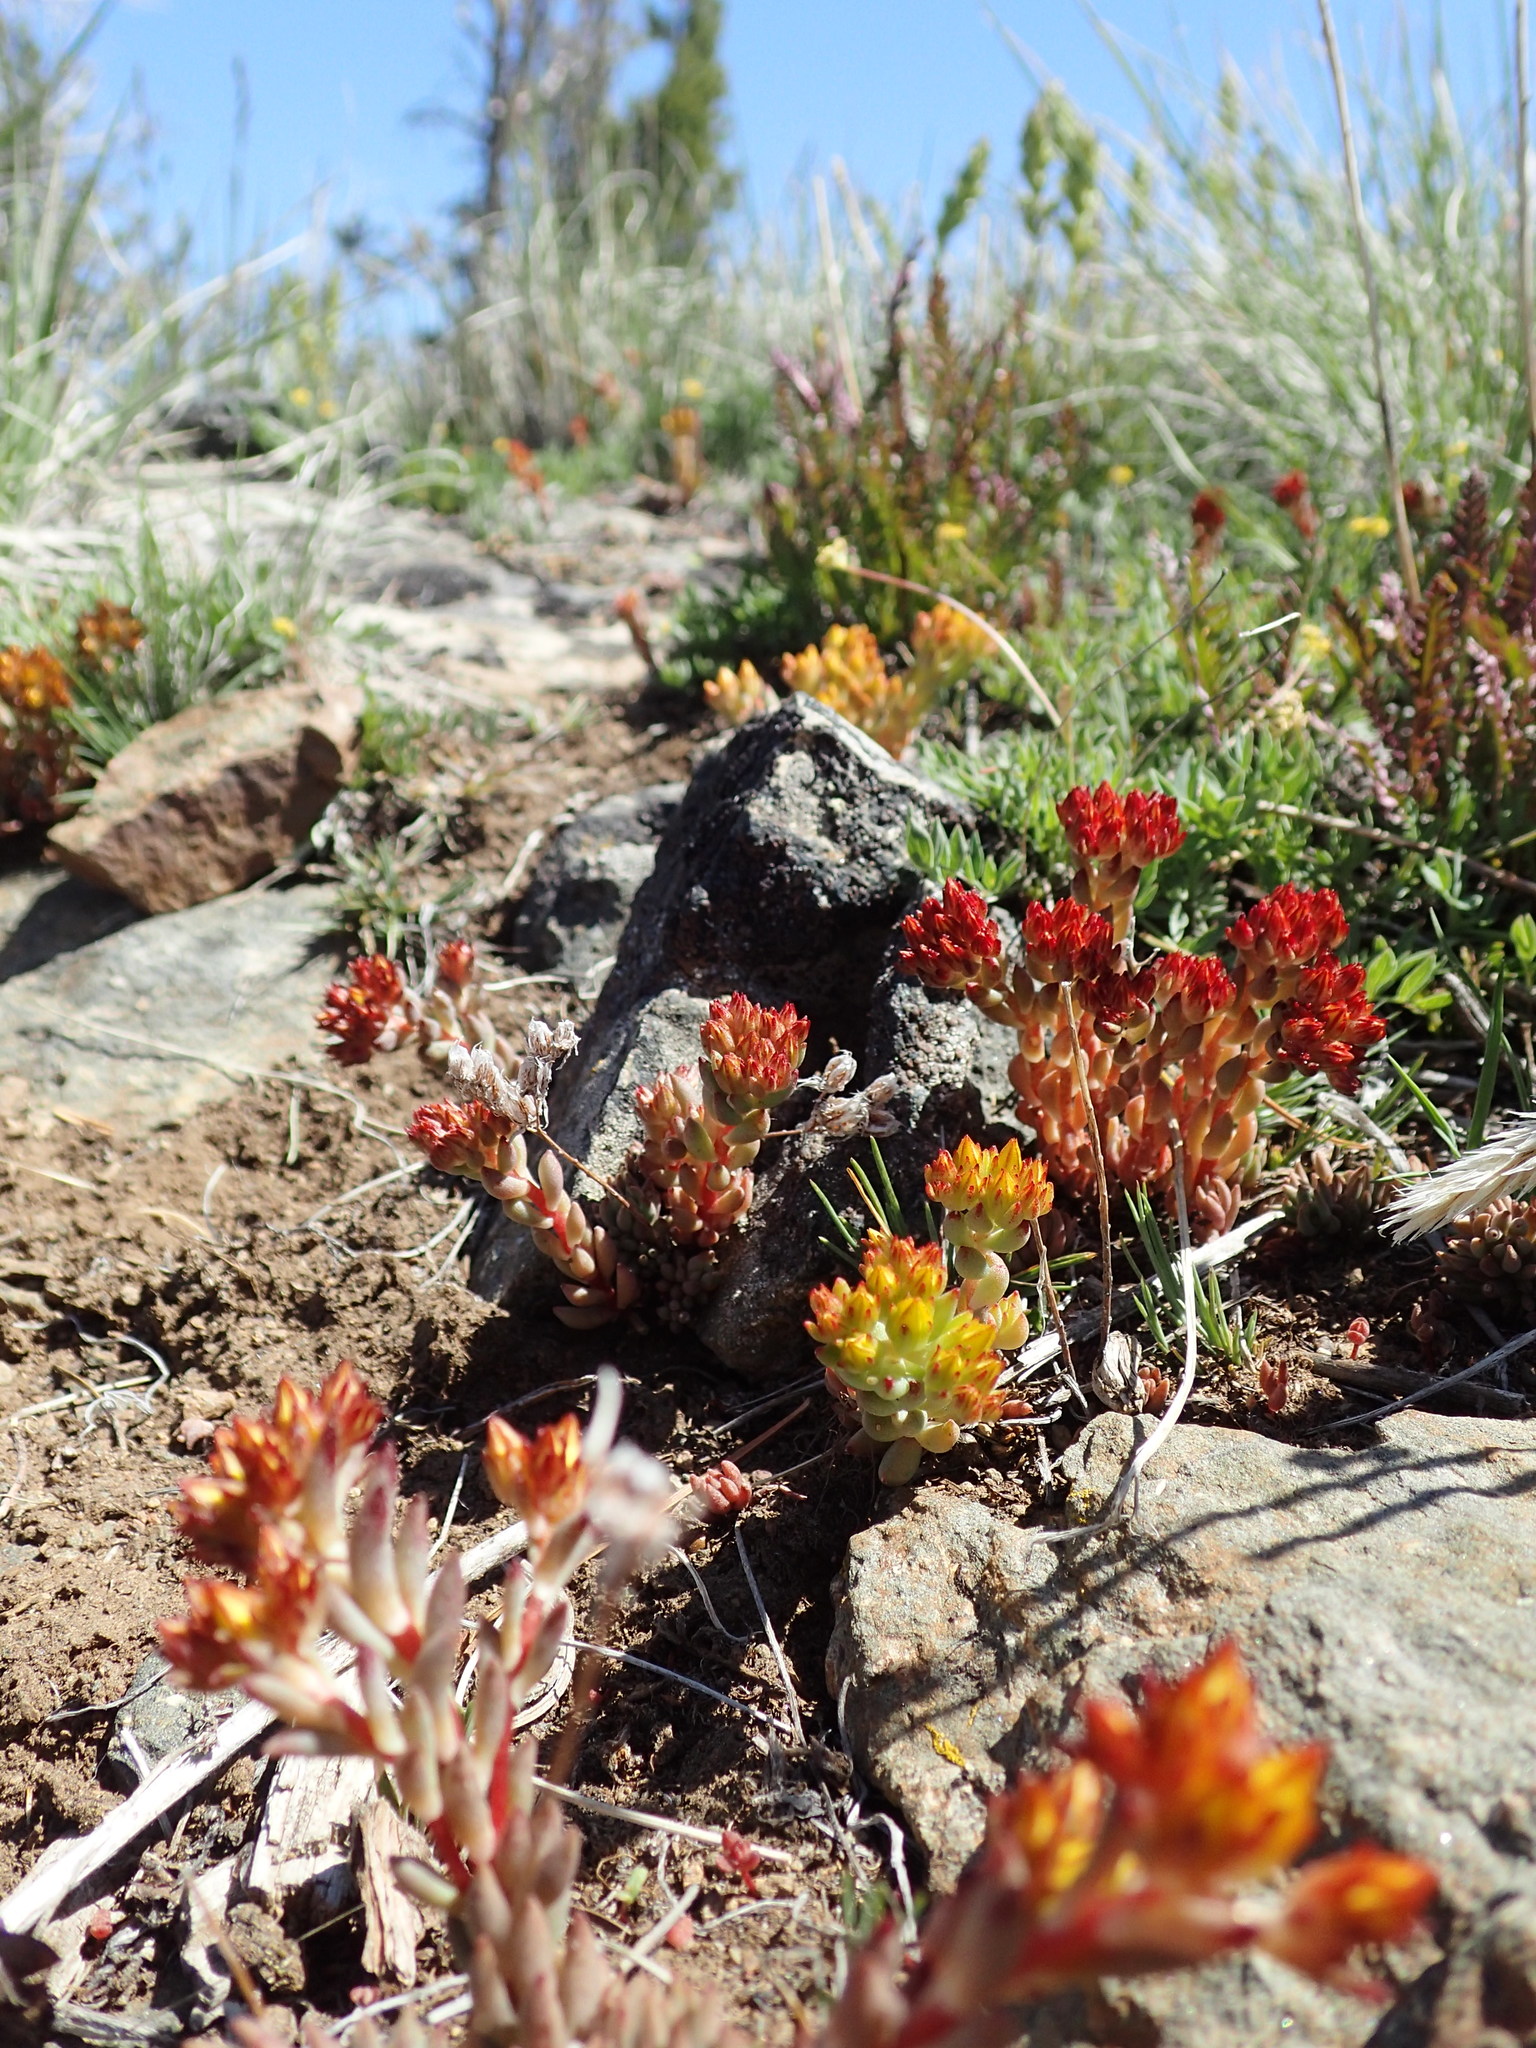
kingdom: Plantae
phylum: Tracheophyta
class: Magnoliopsida
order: Saxifragales
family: Crassulaceae
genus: Sedum
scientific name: Sedum lanceolatum
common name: Common stonecrop
